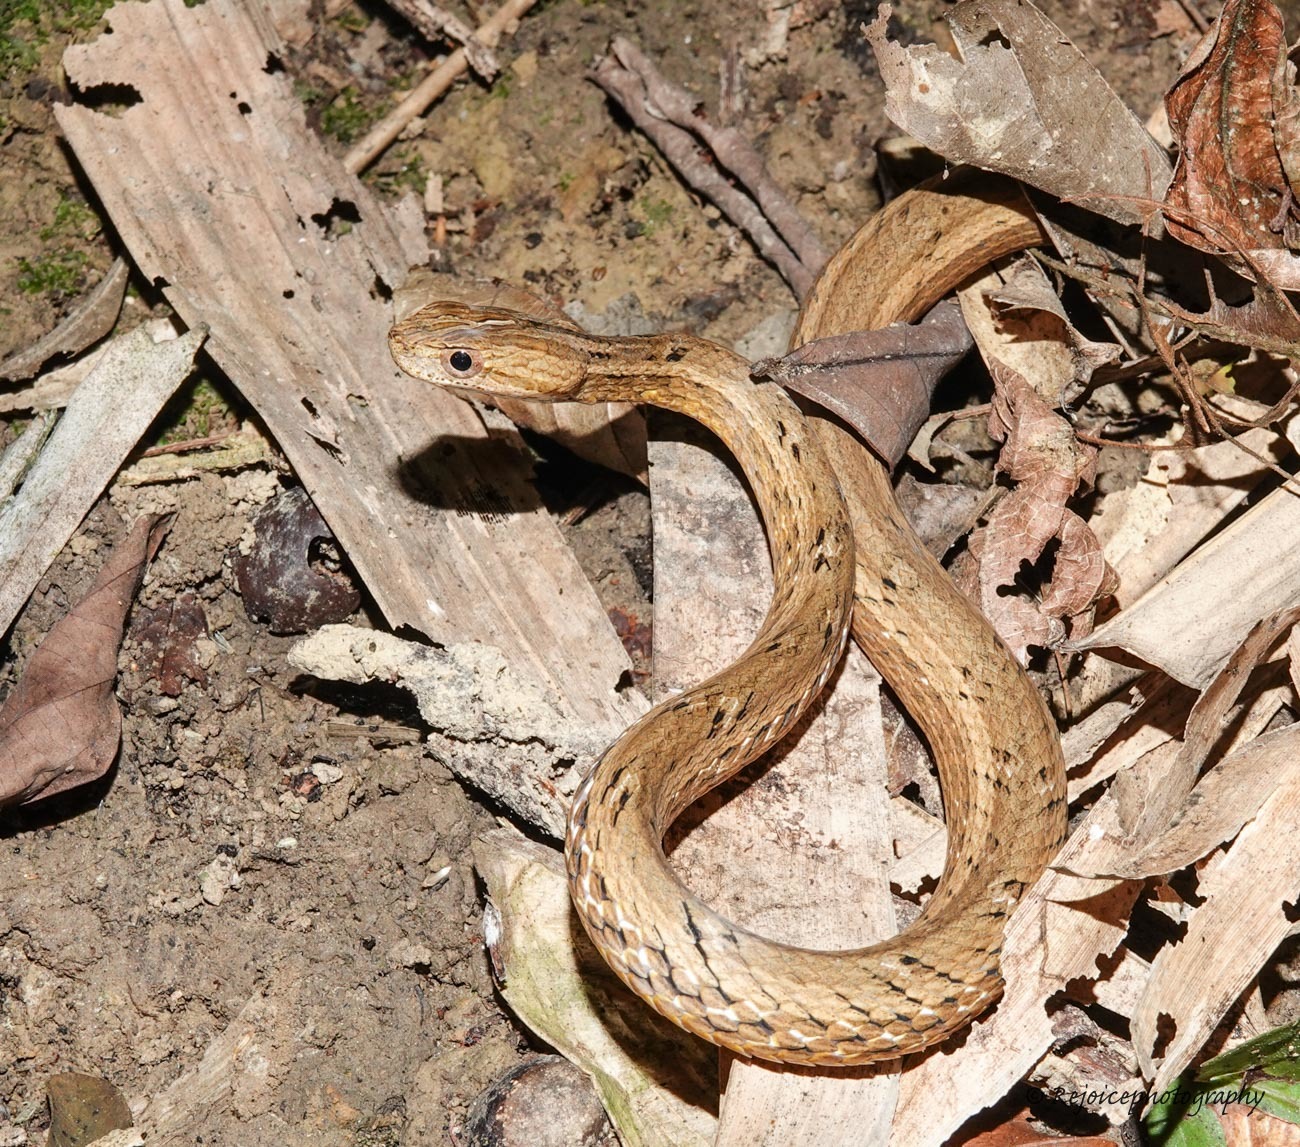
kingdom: Animalia
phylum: Chordata
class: Squamata
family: Pseudaspididae
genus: Psammodynastes
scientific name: Psammodynastes pulverulentus
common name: Common mock viper
